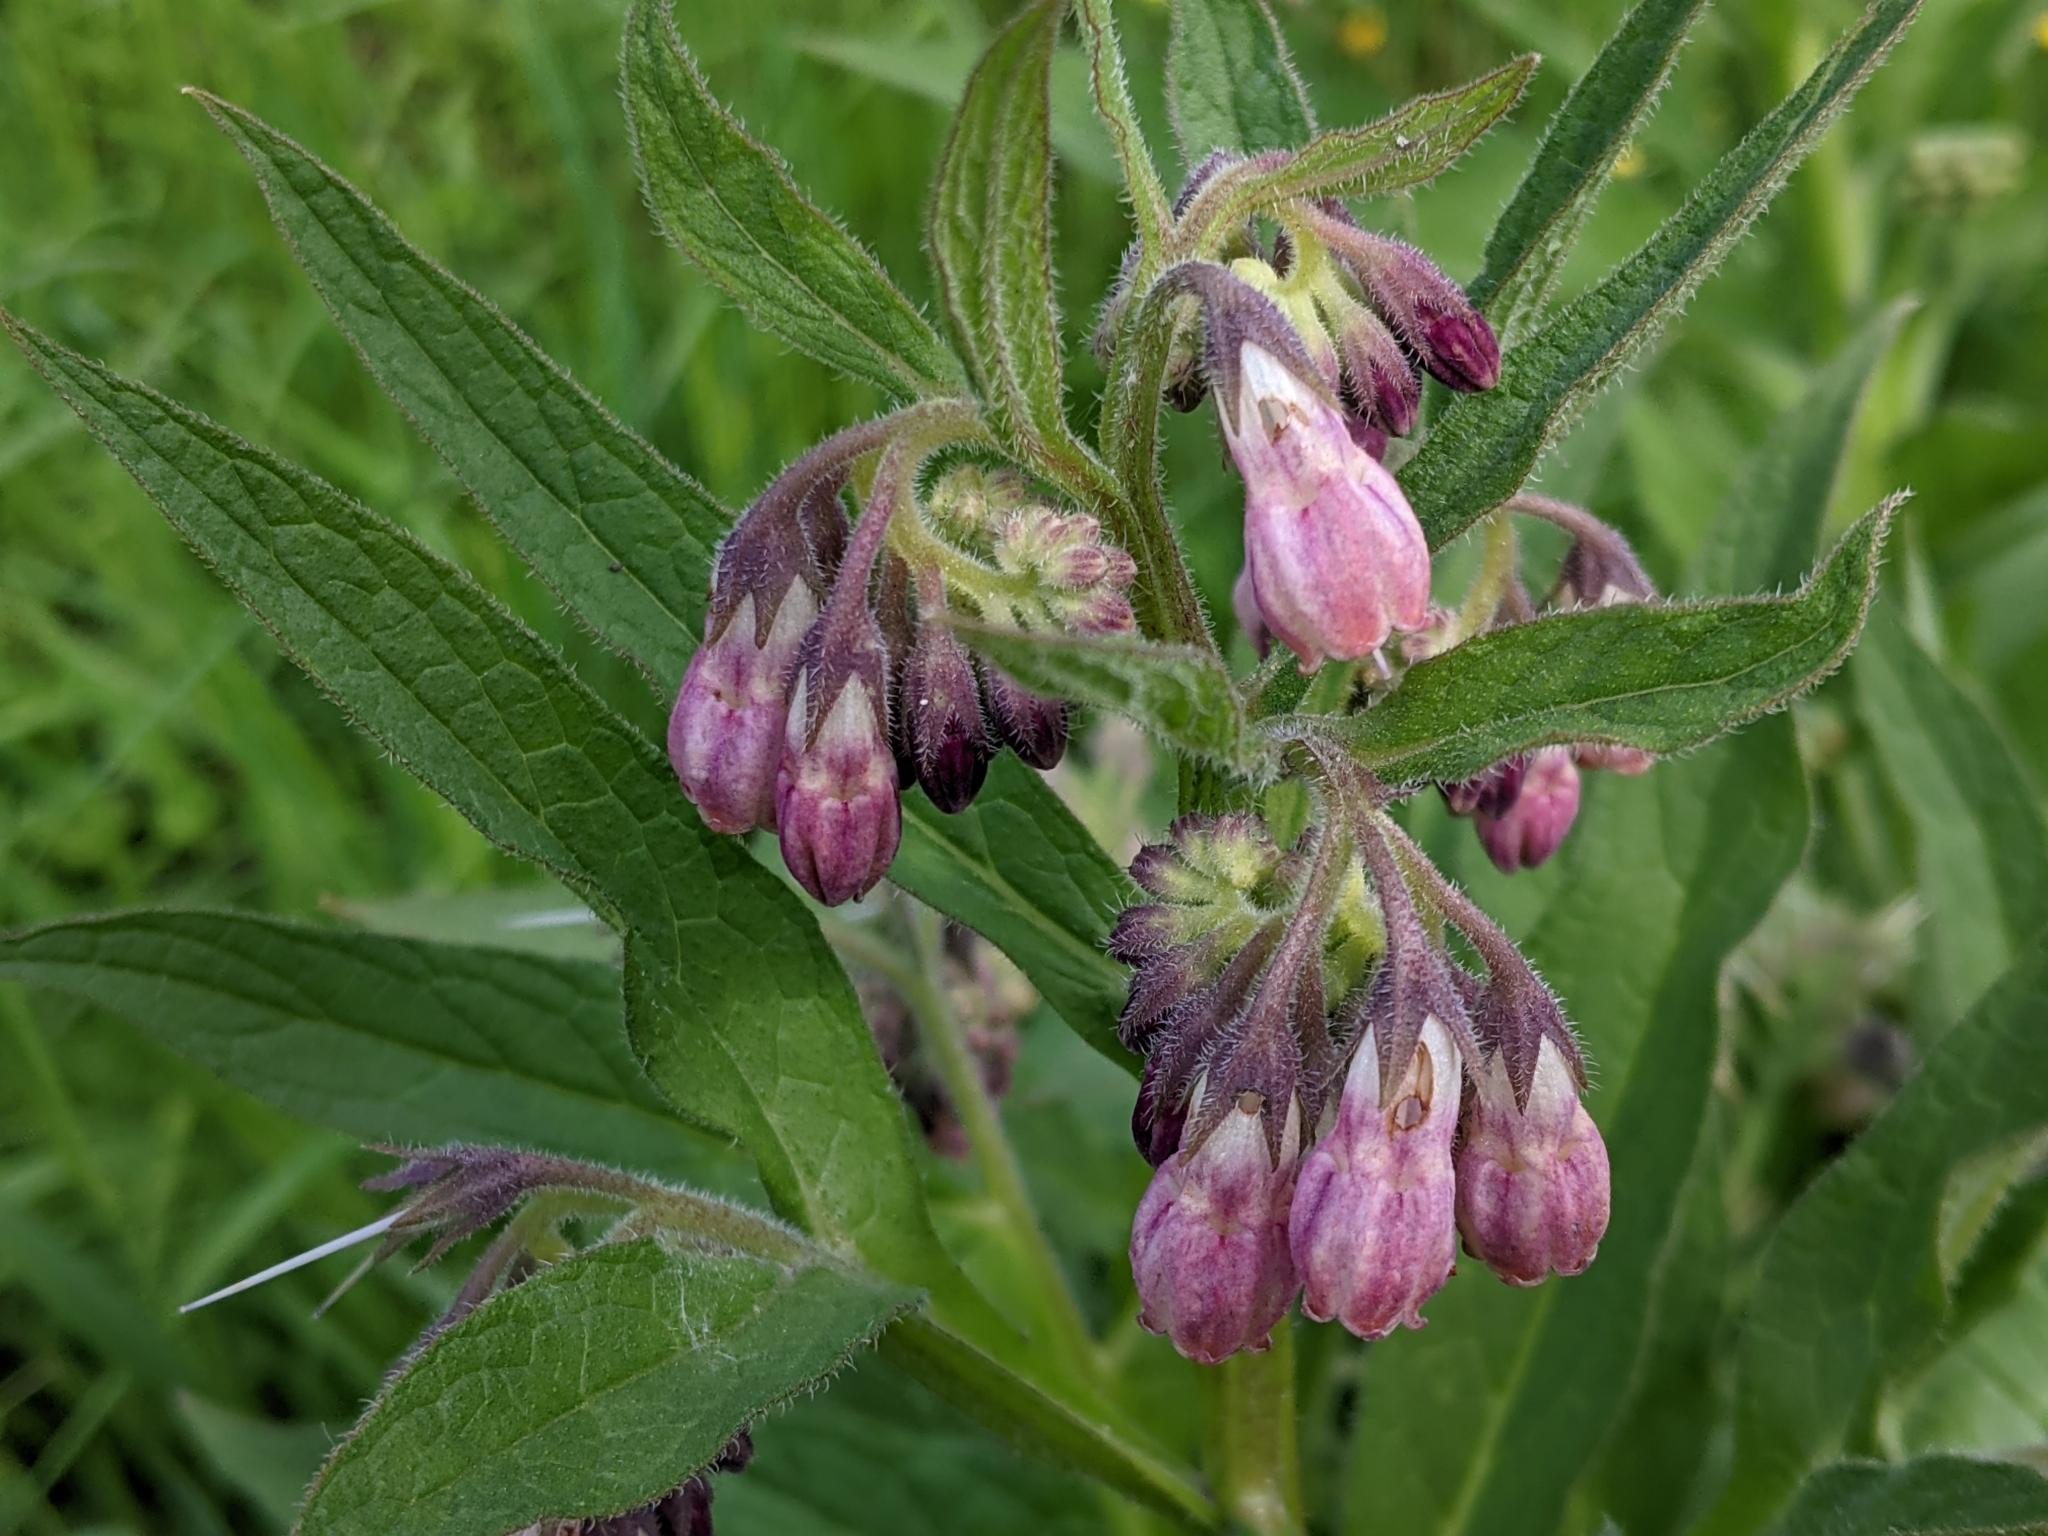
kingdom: Plantae
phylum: Tracheophyta
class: Magnoliopsida
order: Boraginales
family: Boraginaceae
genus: Symphytum
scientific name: Symphytum officinale
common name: Common comfrey
